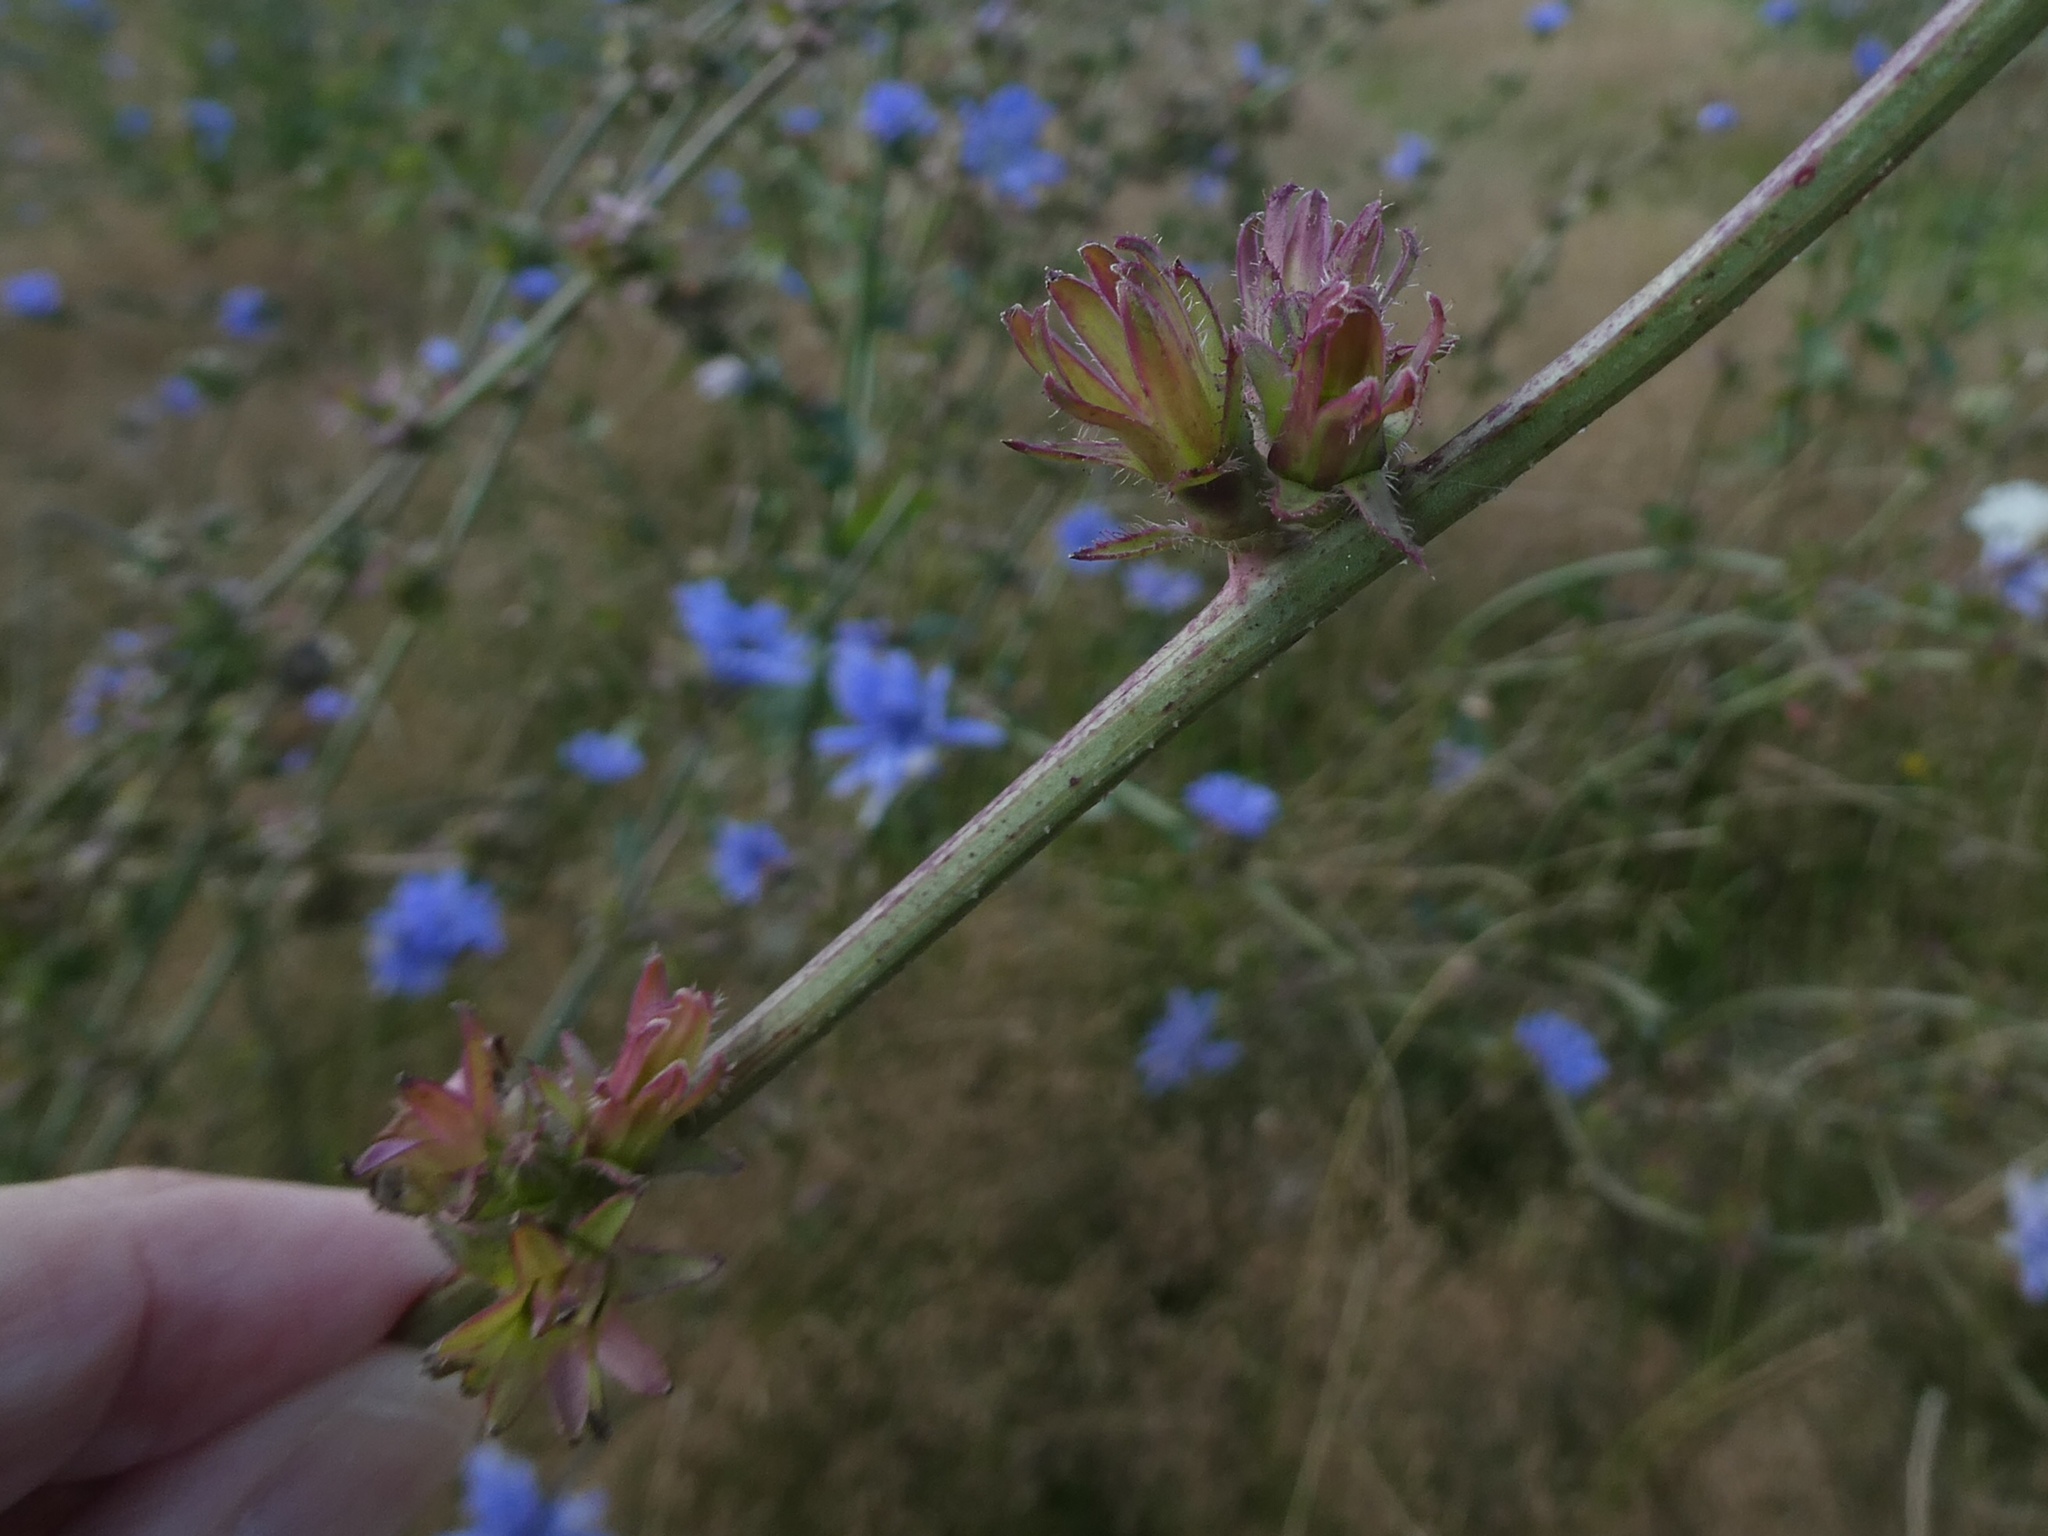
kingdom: Plantae
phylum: Tracheophyta
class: Magnoliopsida
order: Asterales
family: Asteraceae
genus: Cichorium
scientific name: Cichorium intybus
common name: Chicory
